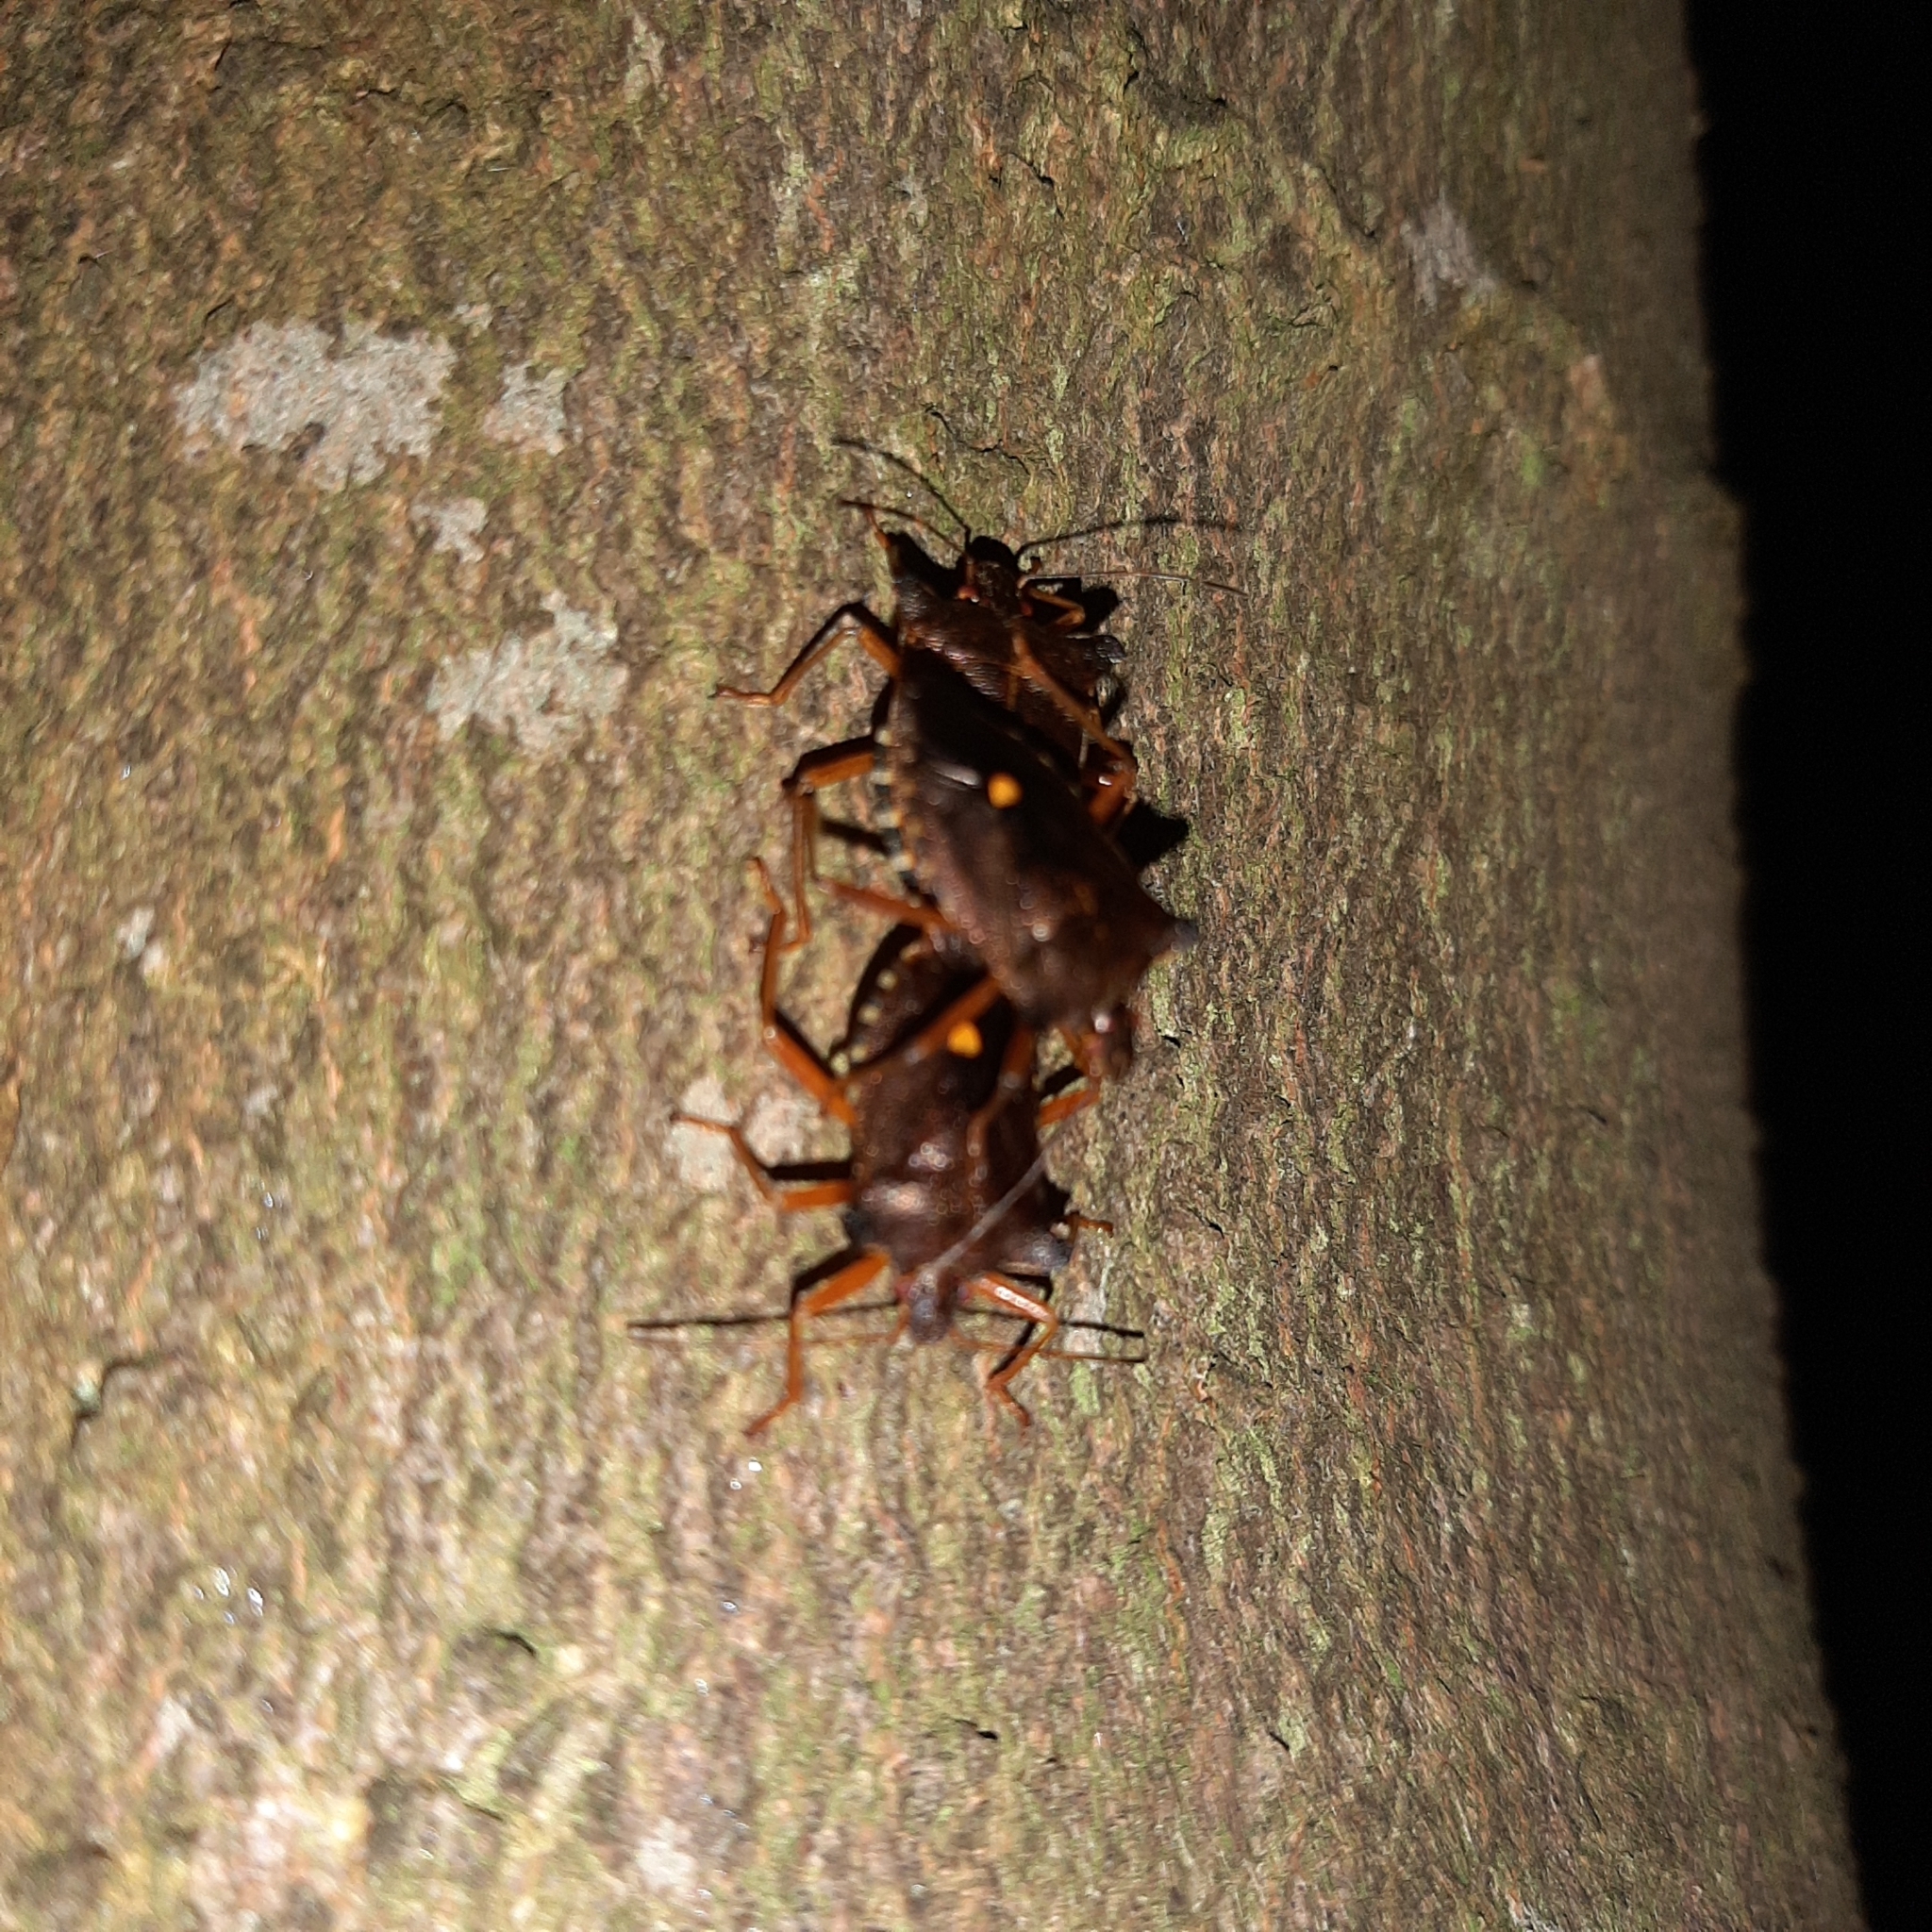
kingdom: Animalia
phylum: Arthropoda
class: Insecta
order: Hemiptera
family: Pentatomidae
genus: Pentatoma
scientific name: Pentatoma rufipes
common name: Forest bug
